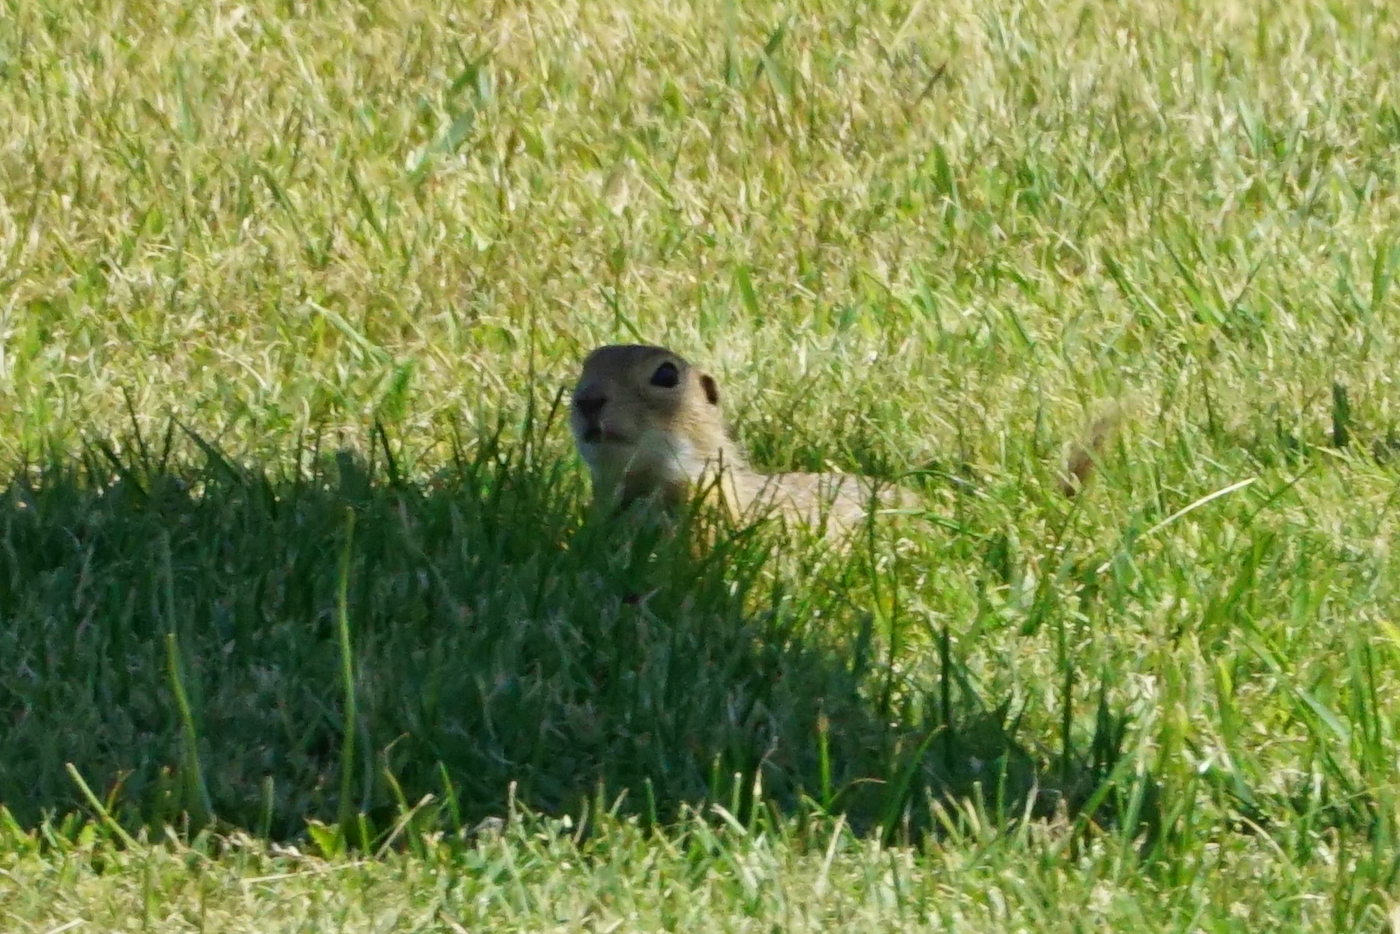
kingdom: Animalia
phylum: Chordata
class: Mammalia
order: Rodentia
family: Sciuridae
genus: Spermophilus
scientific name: Spermophilus citellus
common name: European ground squirrel
